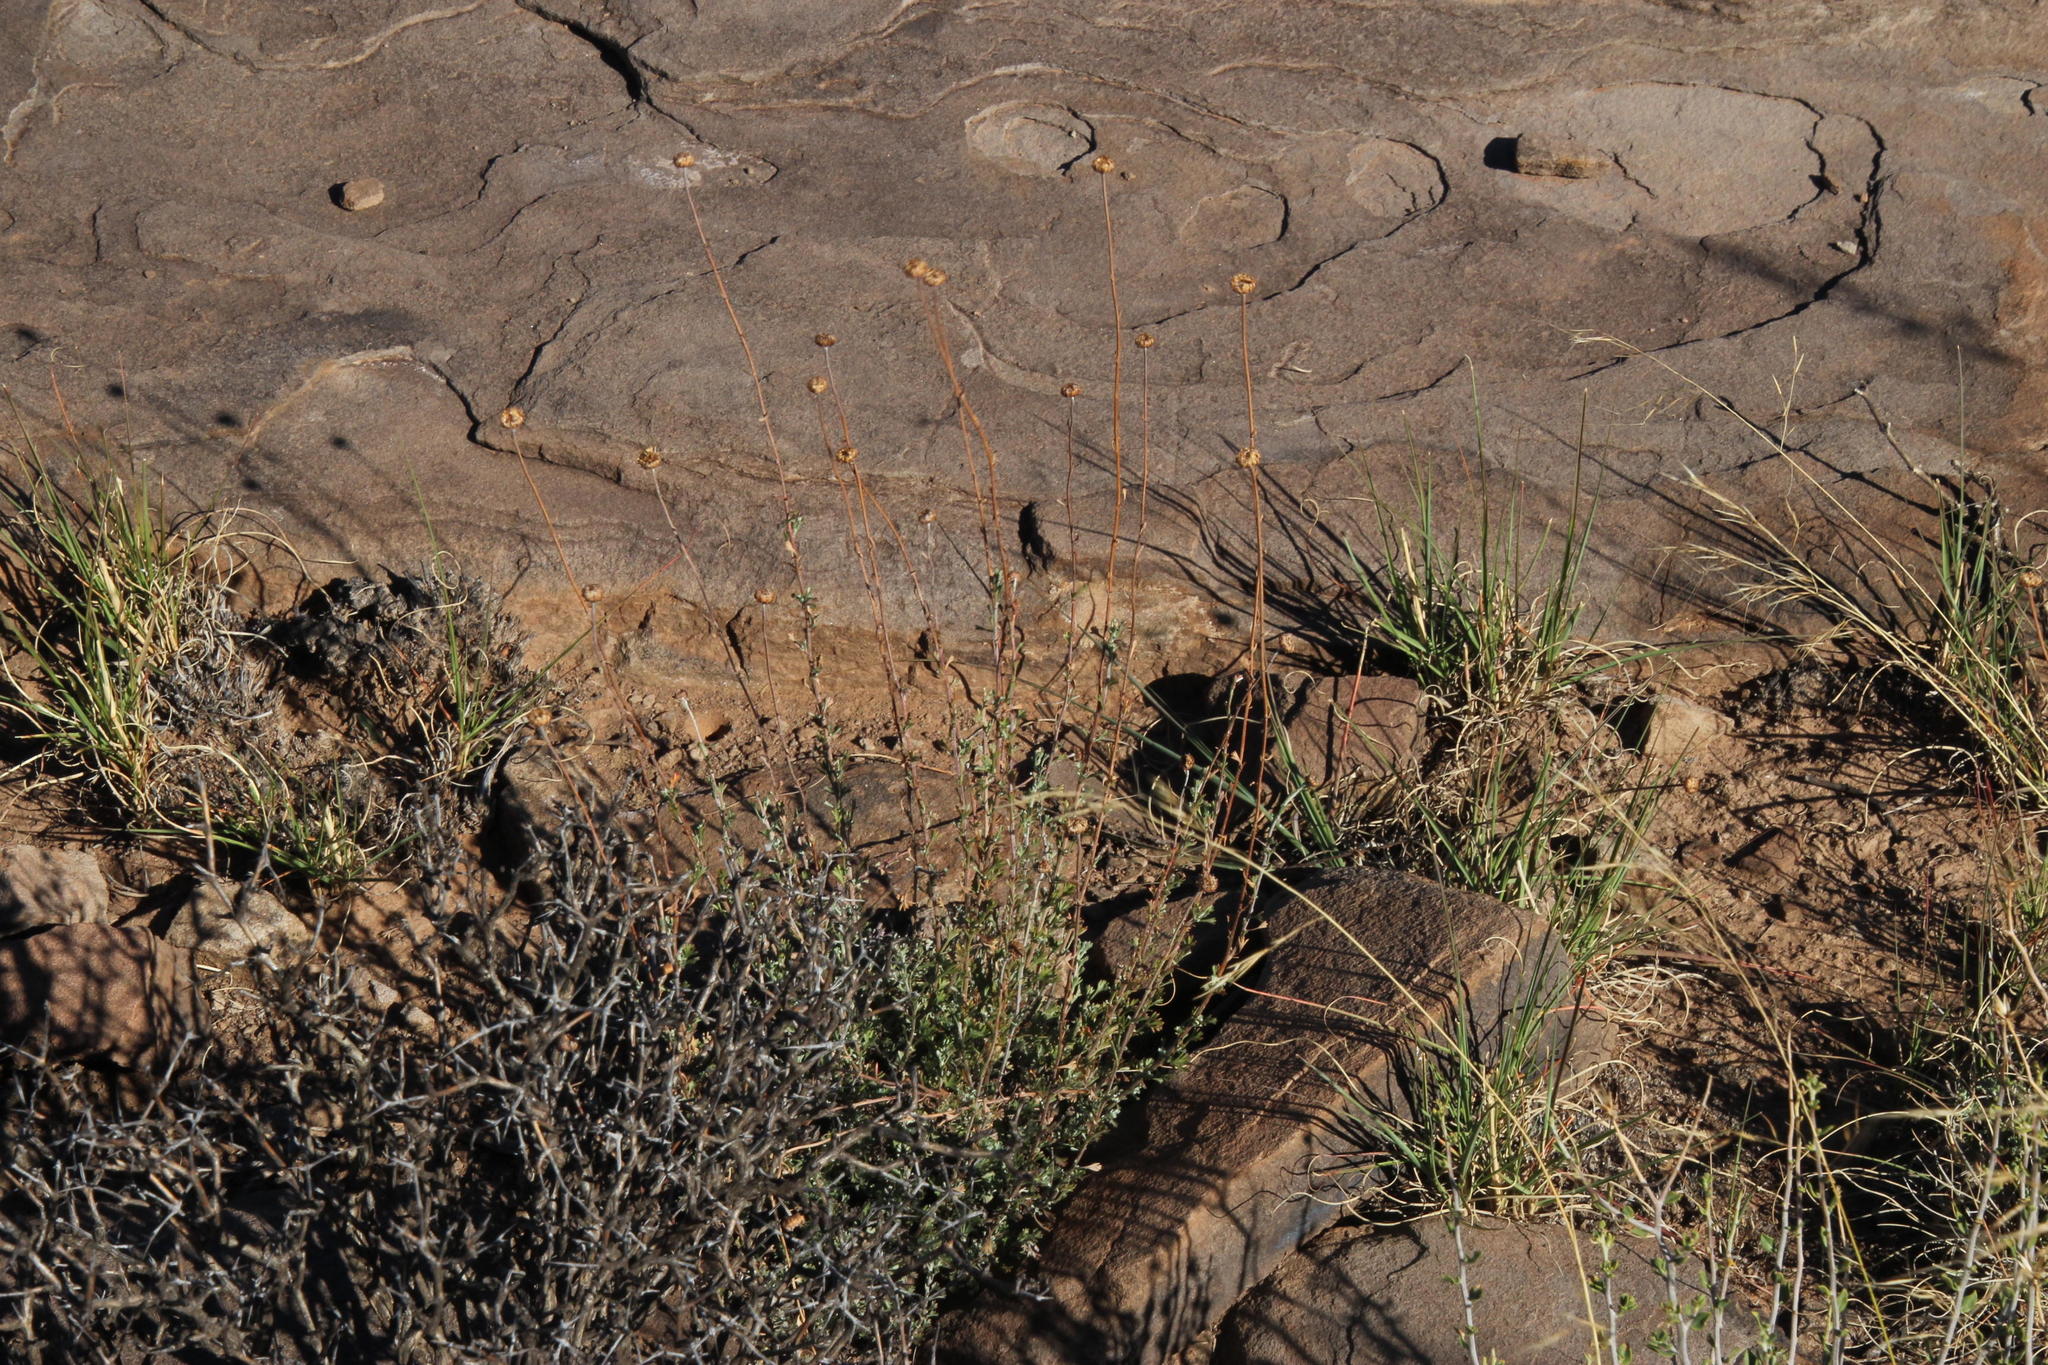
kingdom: Plantae
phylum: Tracheophyta
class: Magnoliopsida
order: Asterales
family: Asteraceae
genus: Pentzia
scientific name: Pentzia incana
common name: African sheepbush
